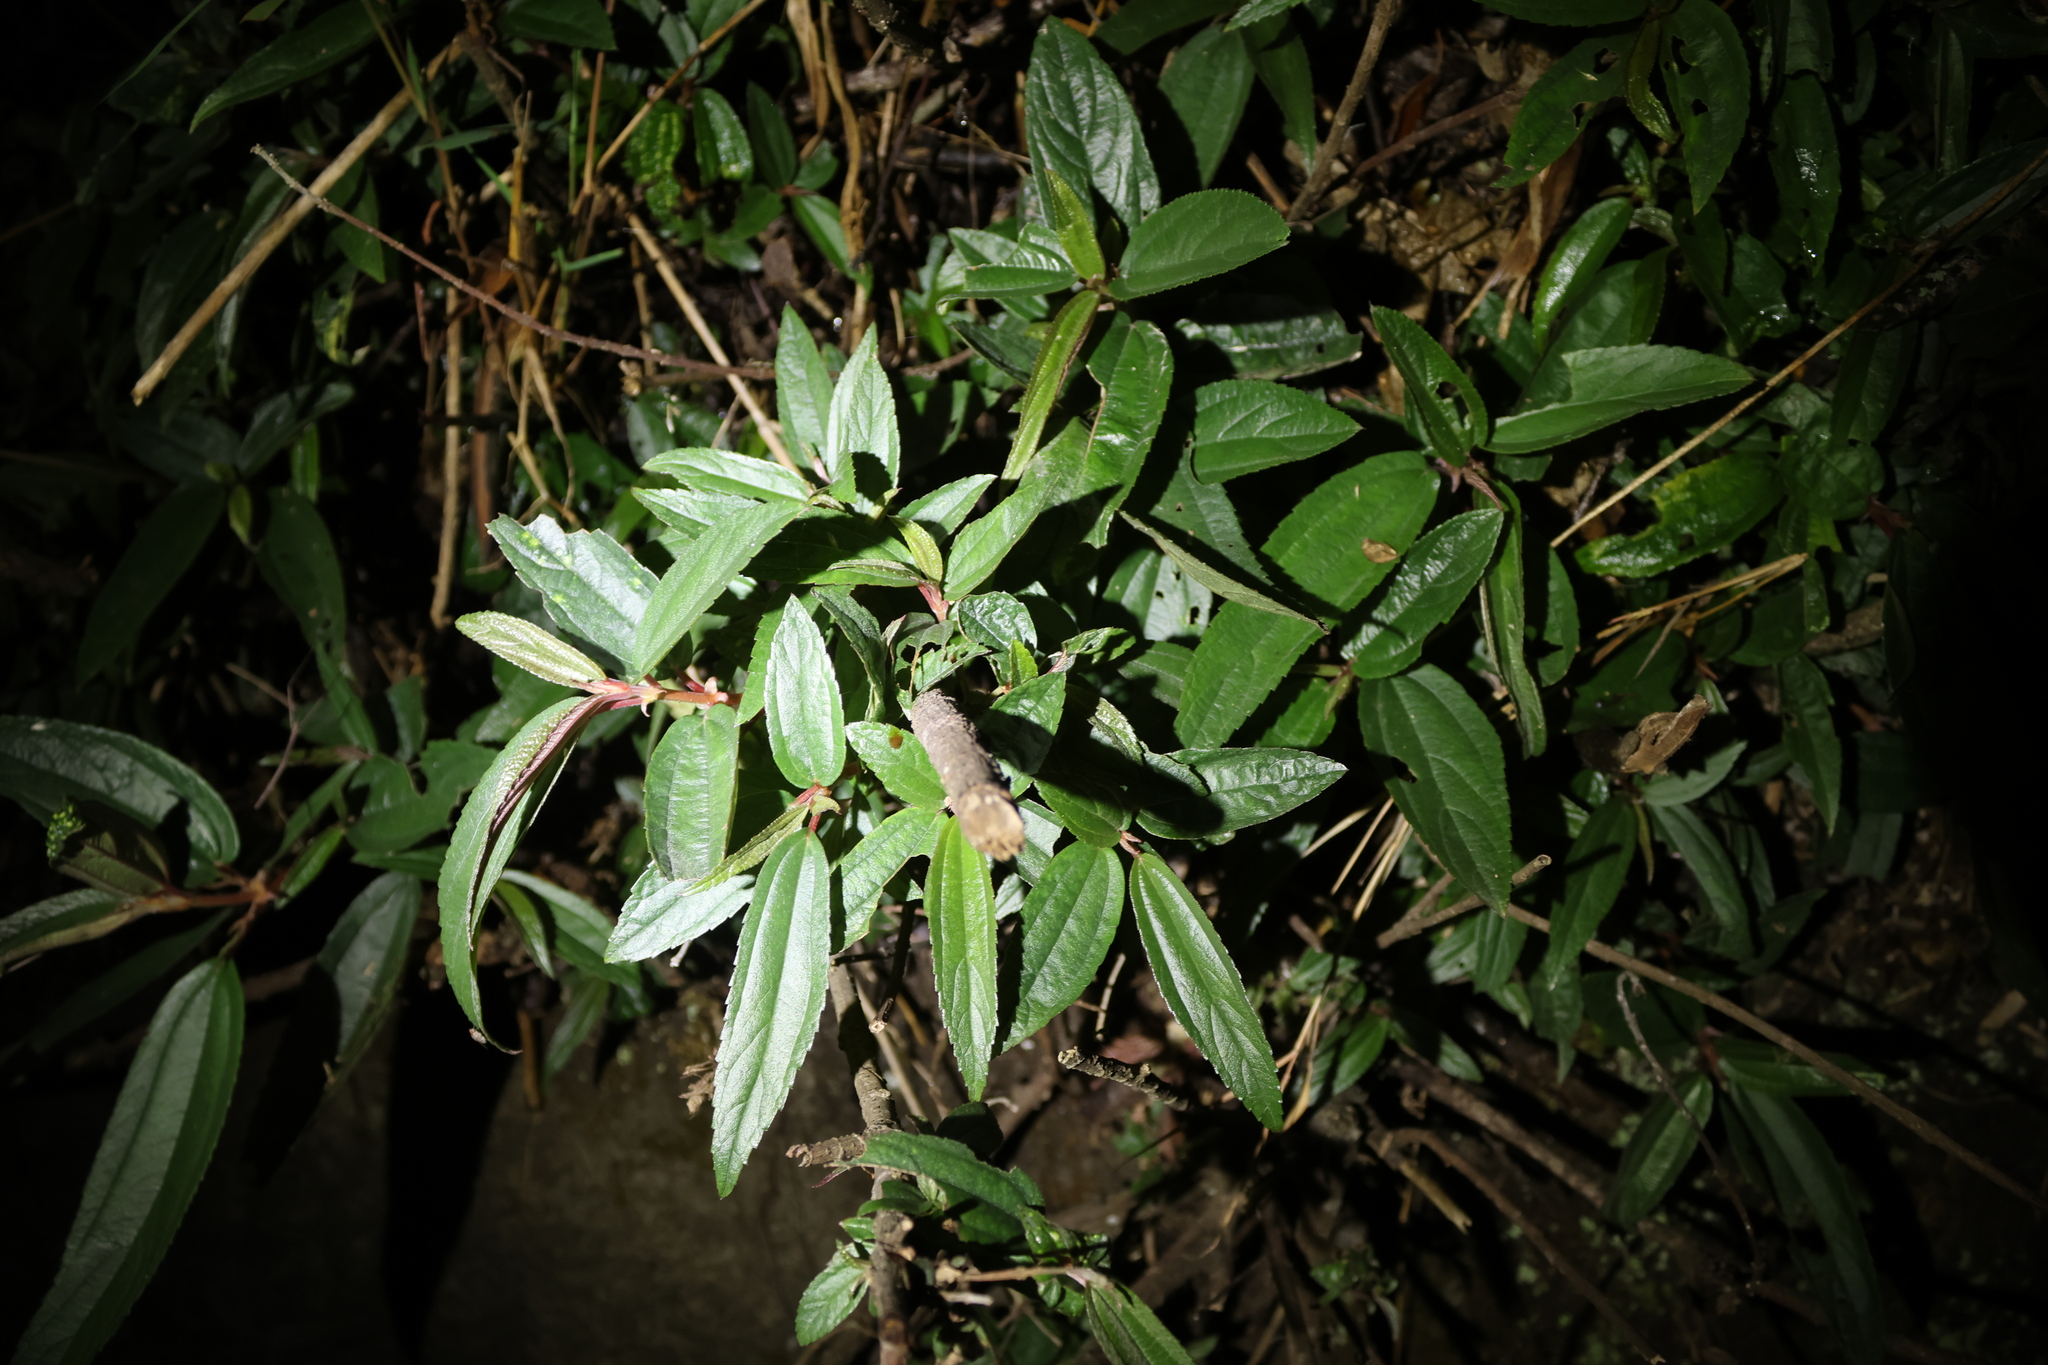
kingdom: Plantae
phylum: Tracheophyta
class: Magnoliopsida
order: Rosales
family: Urticaceae
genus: Boehmeria
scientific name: Boehmeria densiflora
